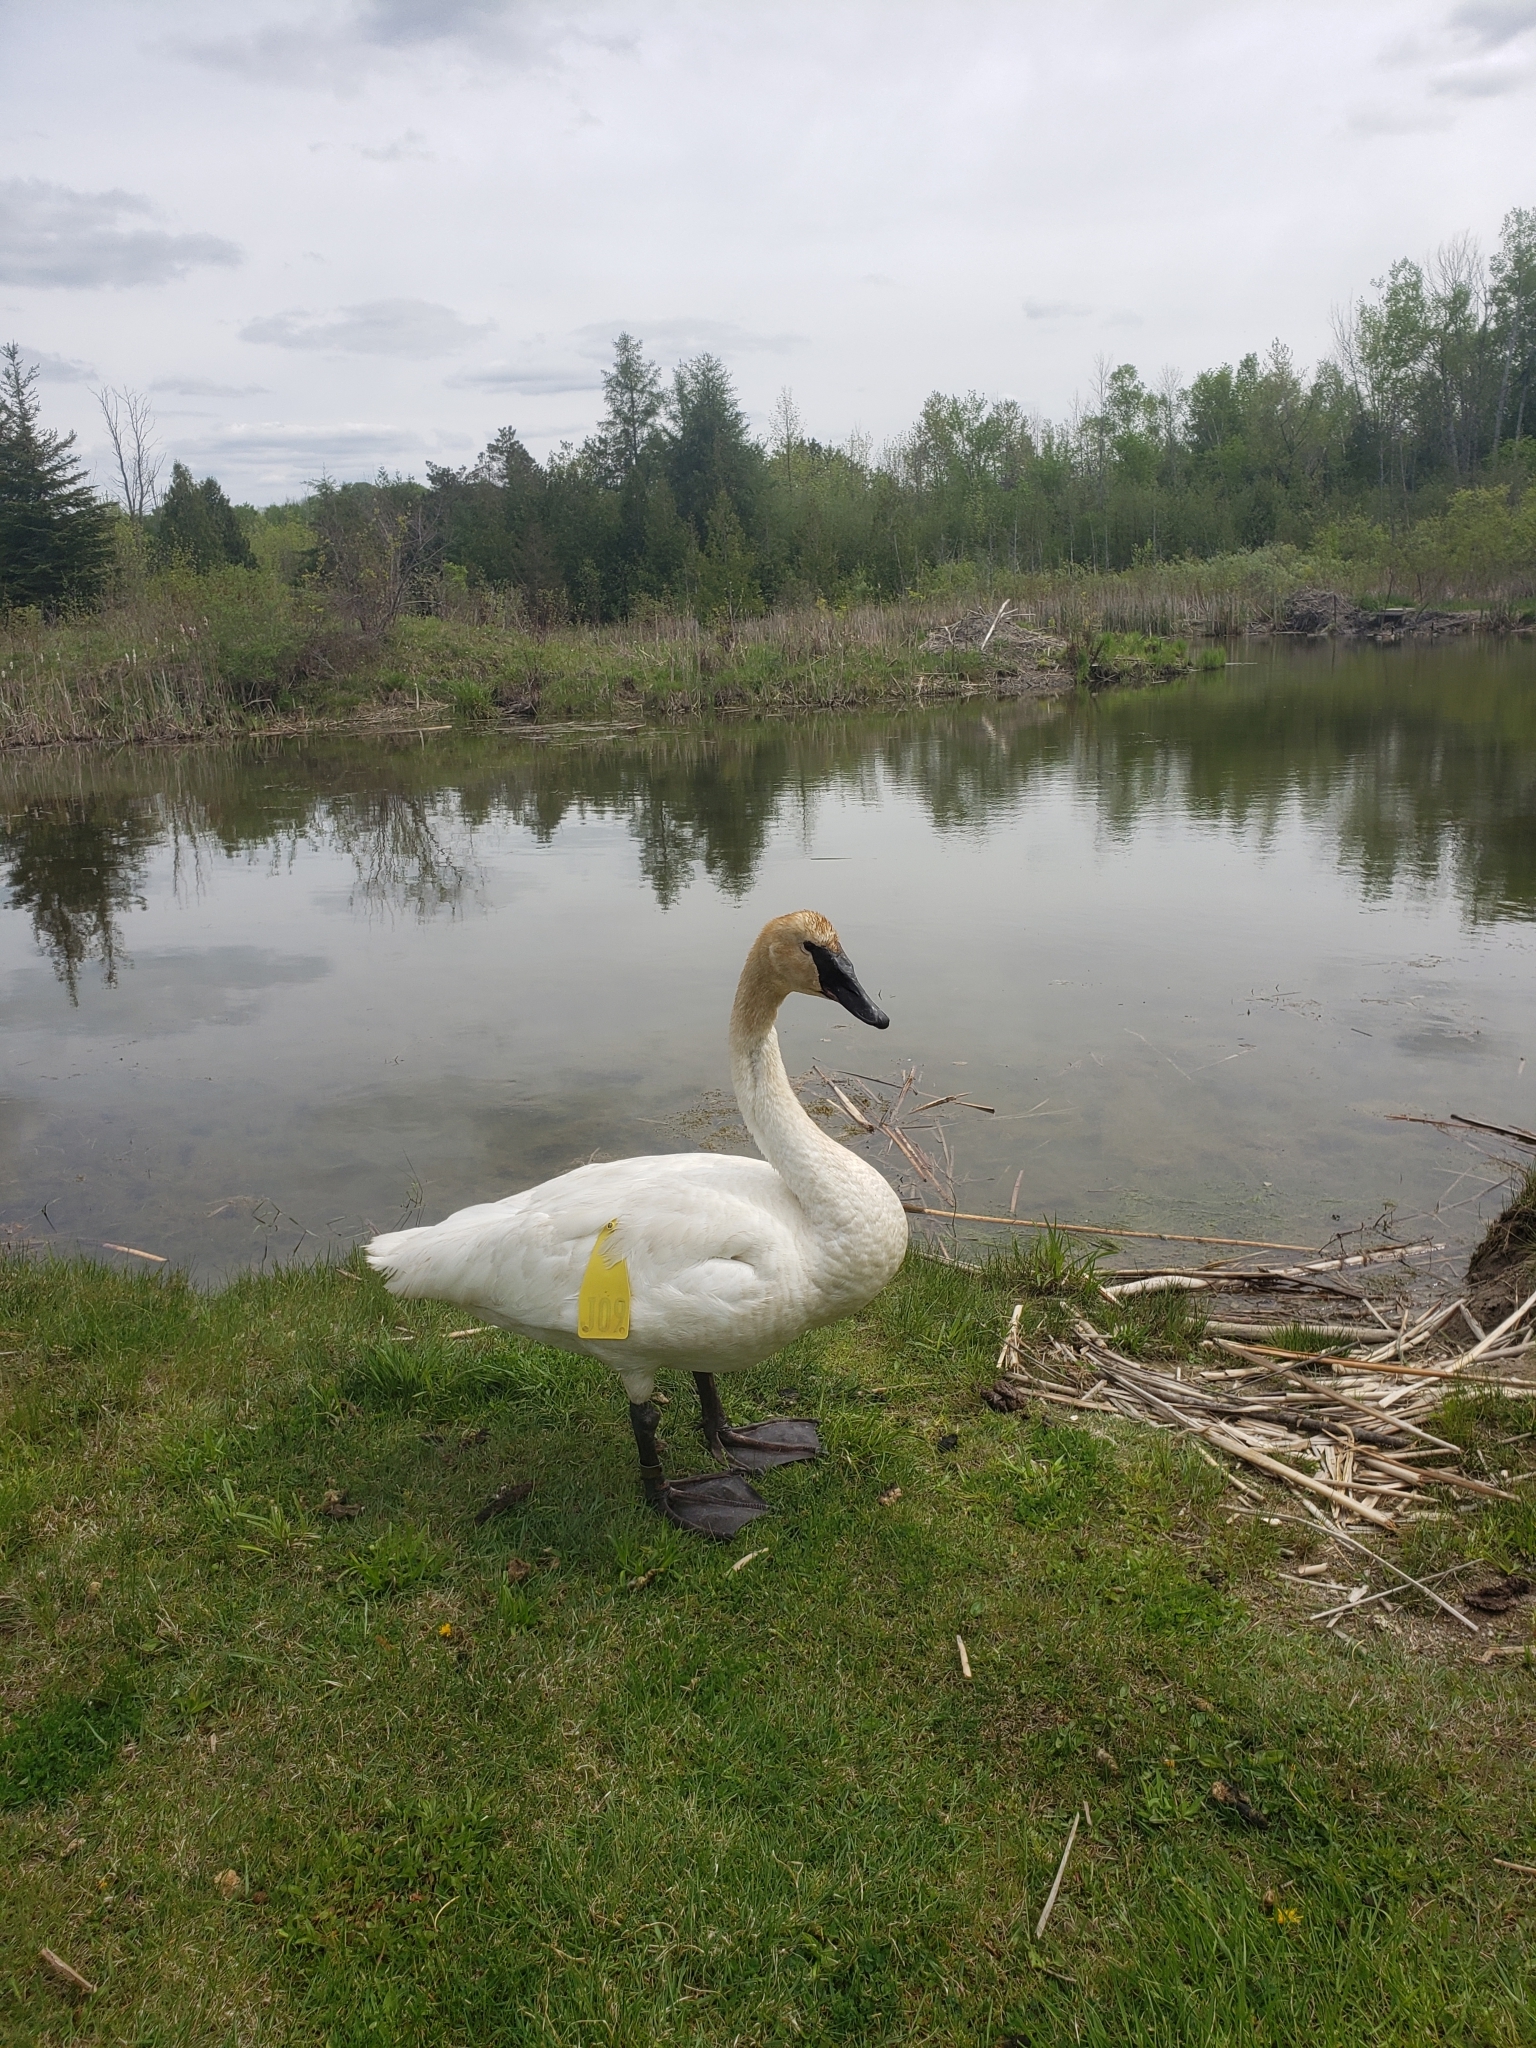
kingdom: Animalia
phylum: Chordata
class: Aves
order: Anseriformes
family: Anatidae
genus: Cygnus
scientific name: Cygnus buccinator
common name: Trumpeter swan
